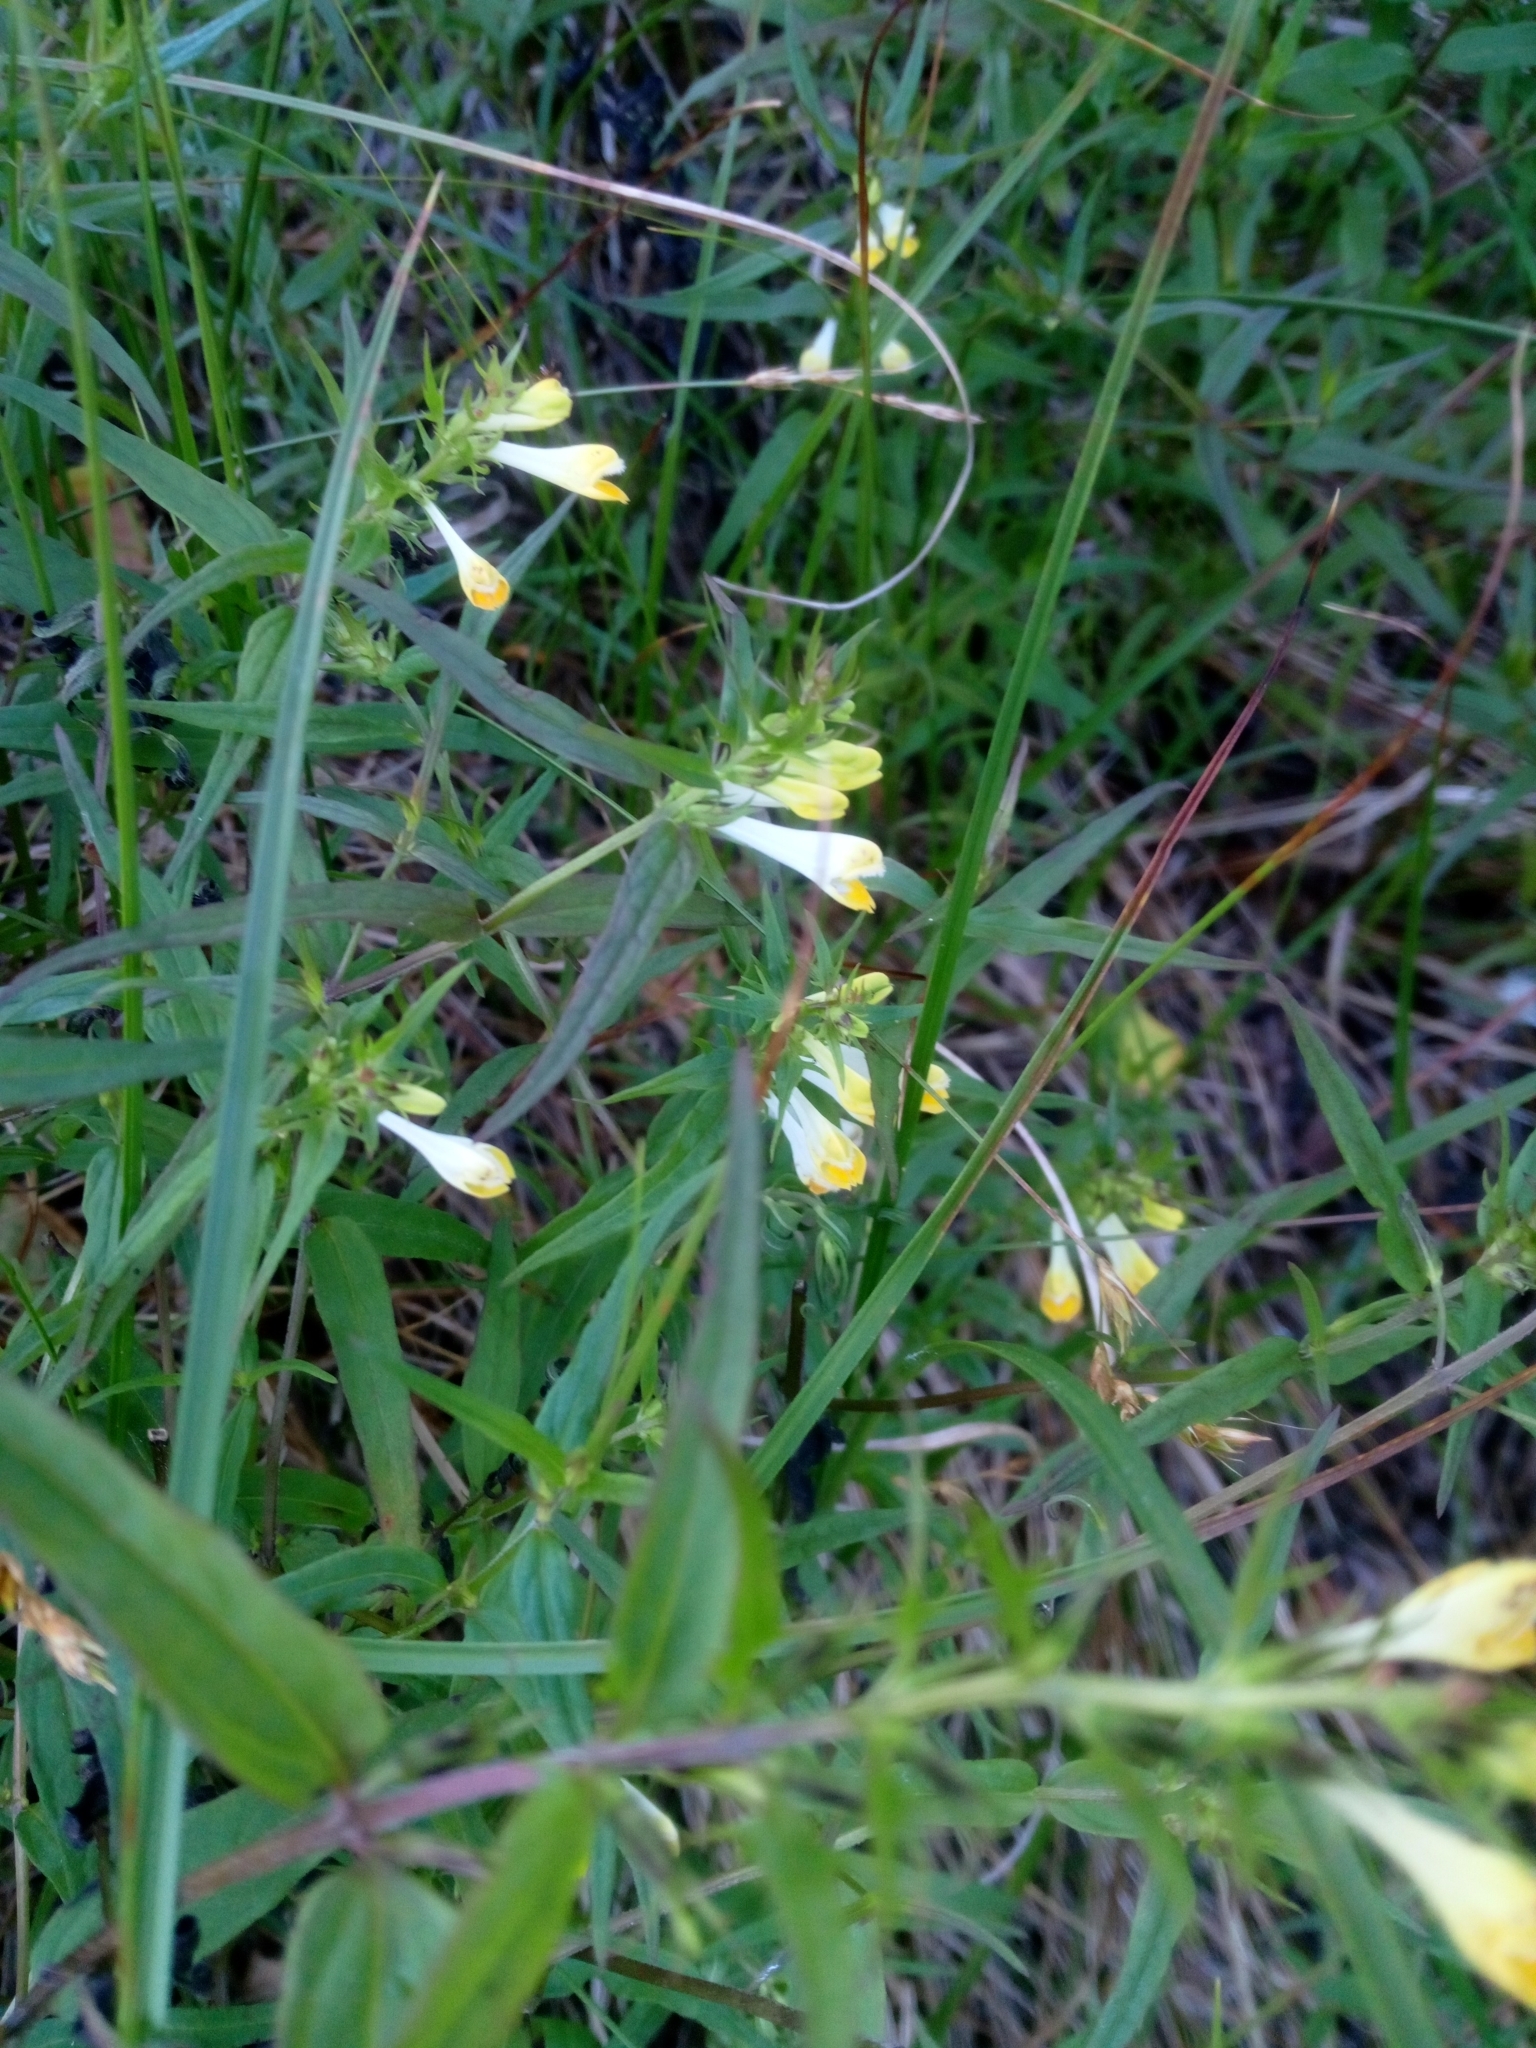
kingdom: Plantae
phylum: Tracheophyta
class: Magnoliopsida
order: Lamiales
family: Orobanchaceae
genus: Melampyrum
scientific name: Melampyrum pratense
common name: Common cow-wheat
